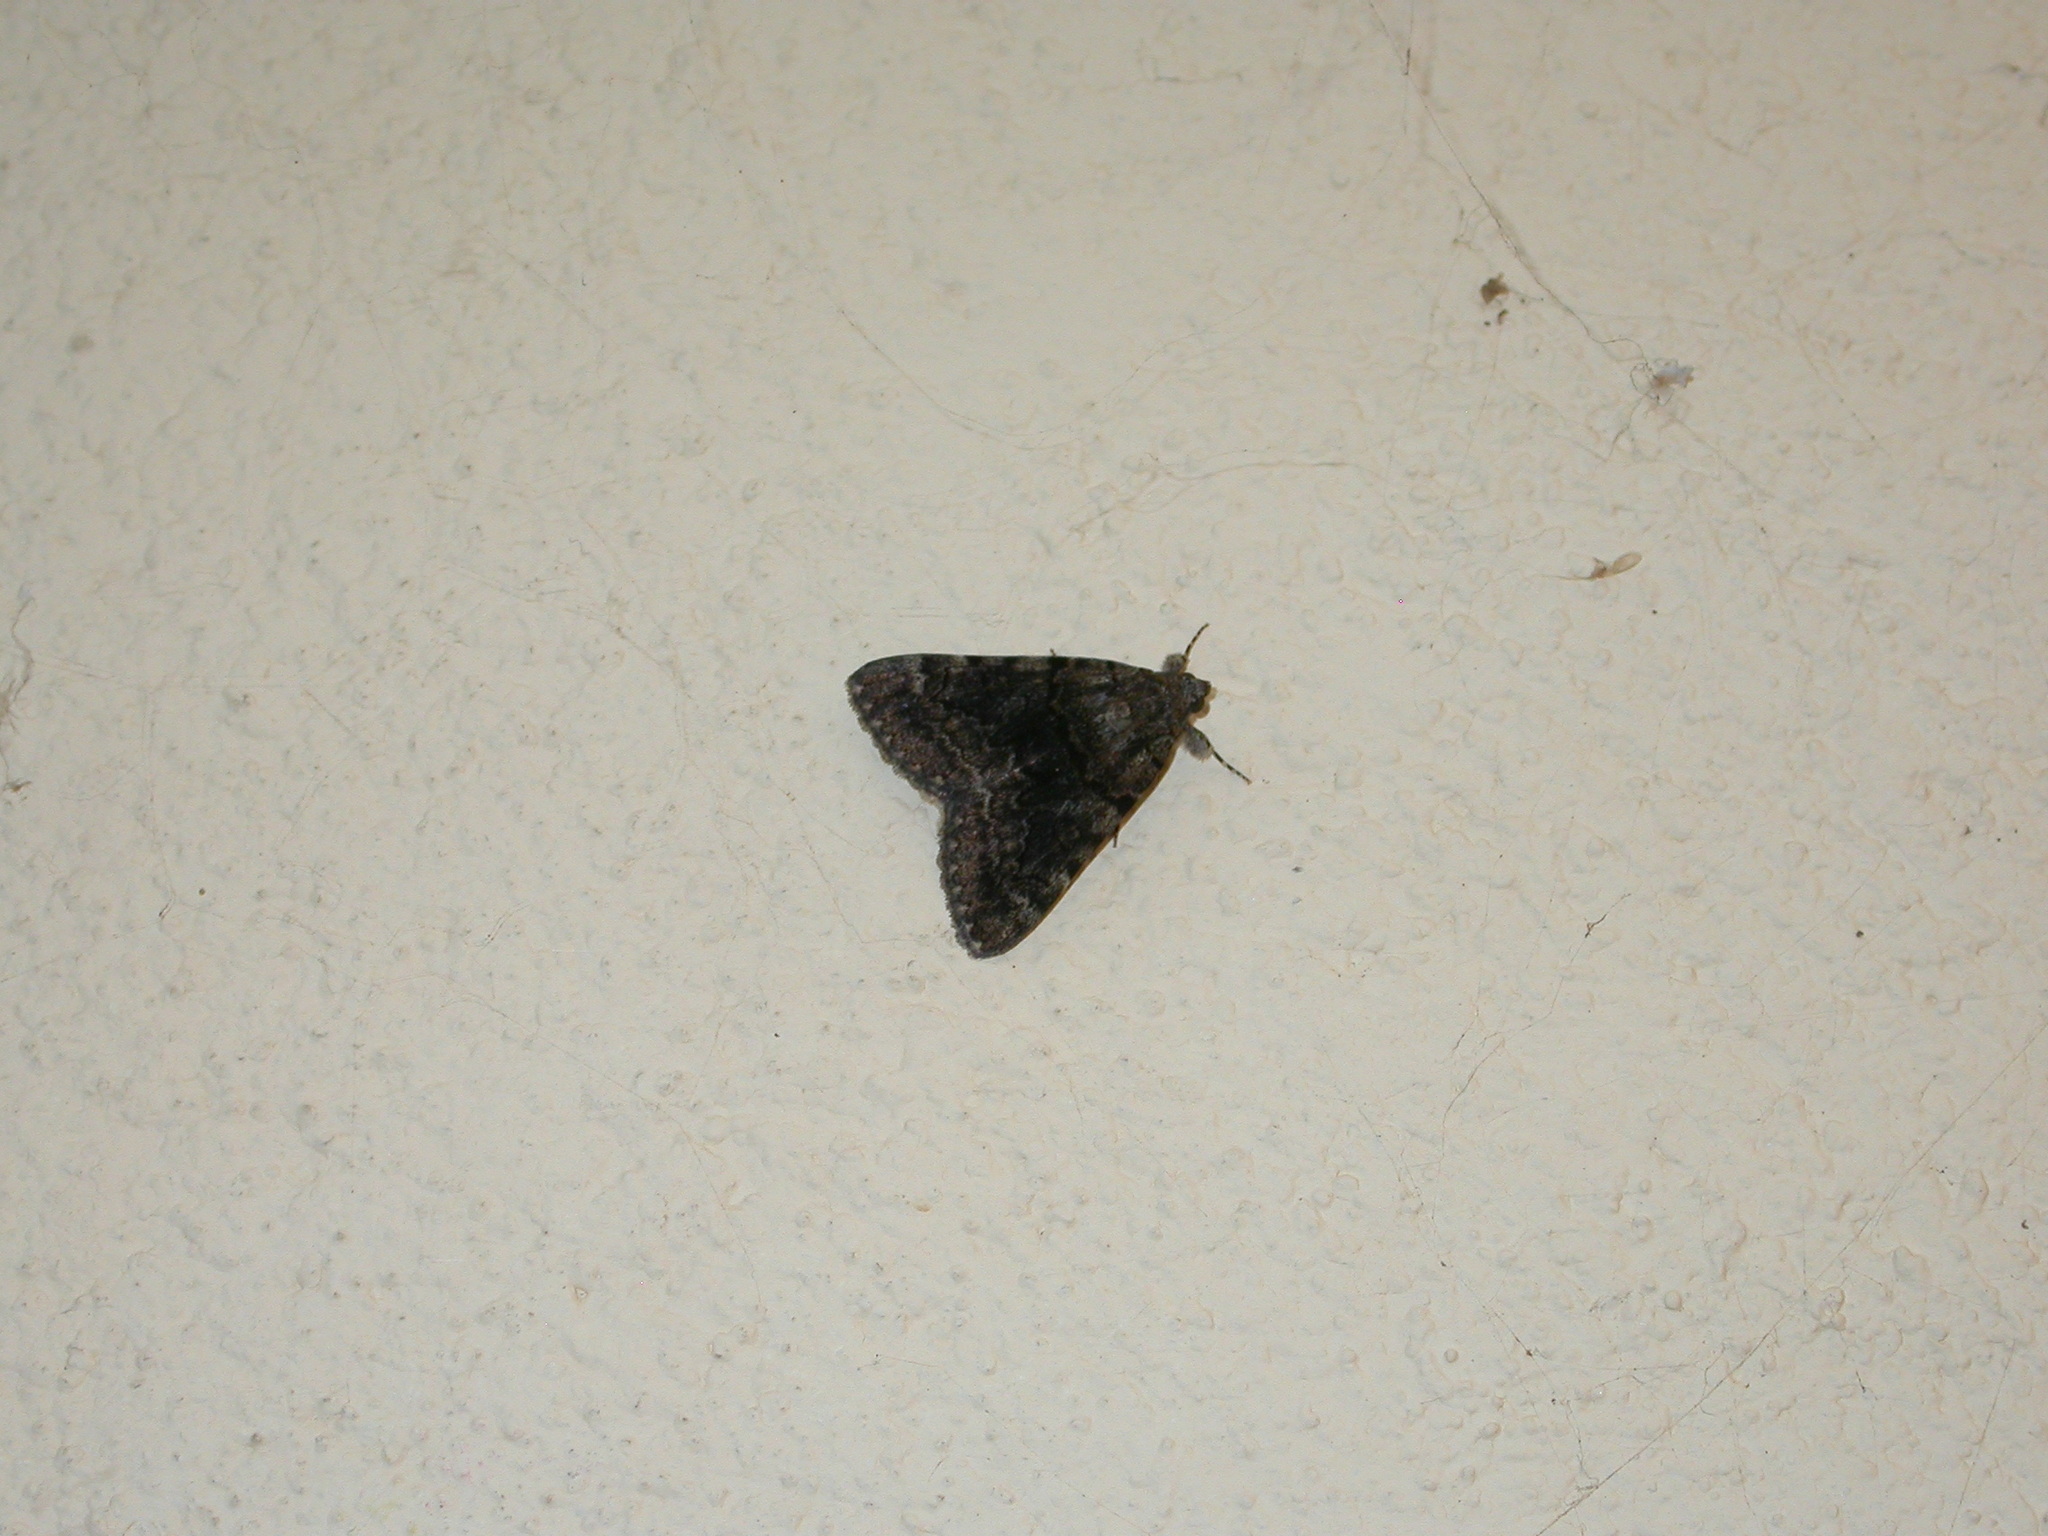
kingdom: Animalia
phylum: Arthropoda
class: Insecta
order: Lepidoptera
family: Erebidae
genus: Catocala
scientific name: Catocala nymphagoga
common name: Oak yellow underwing
